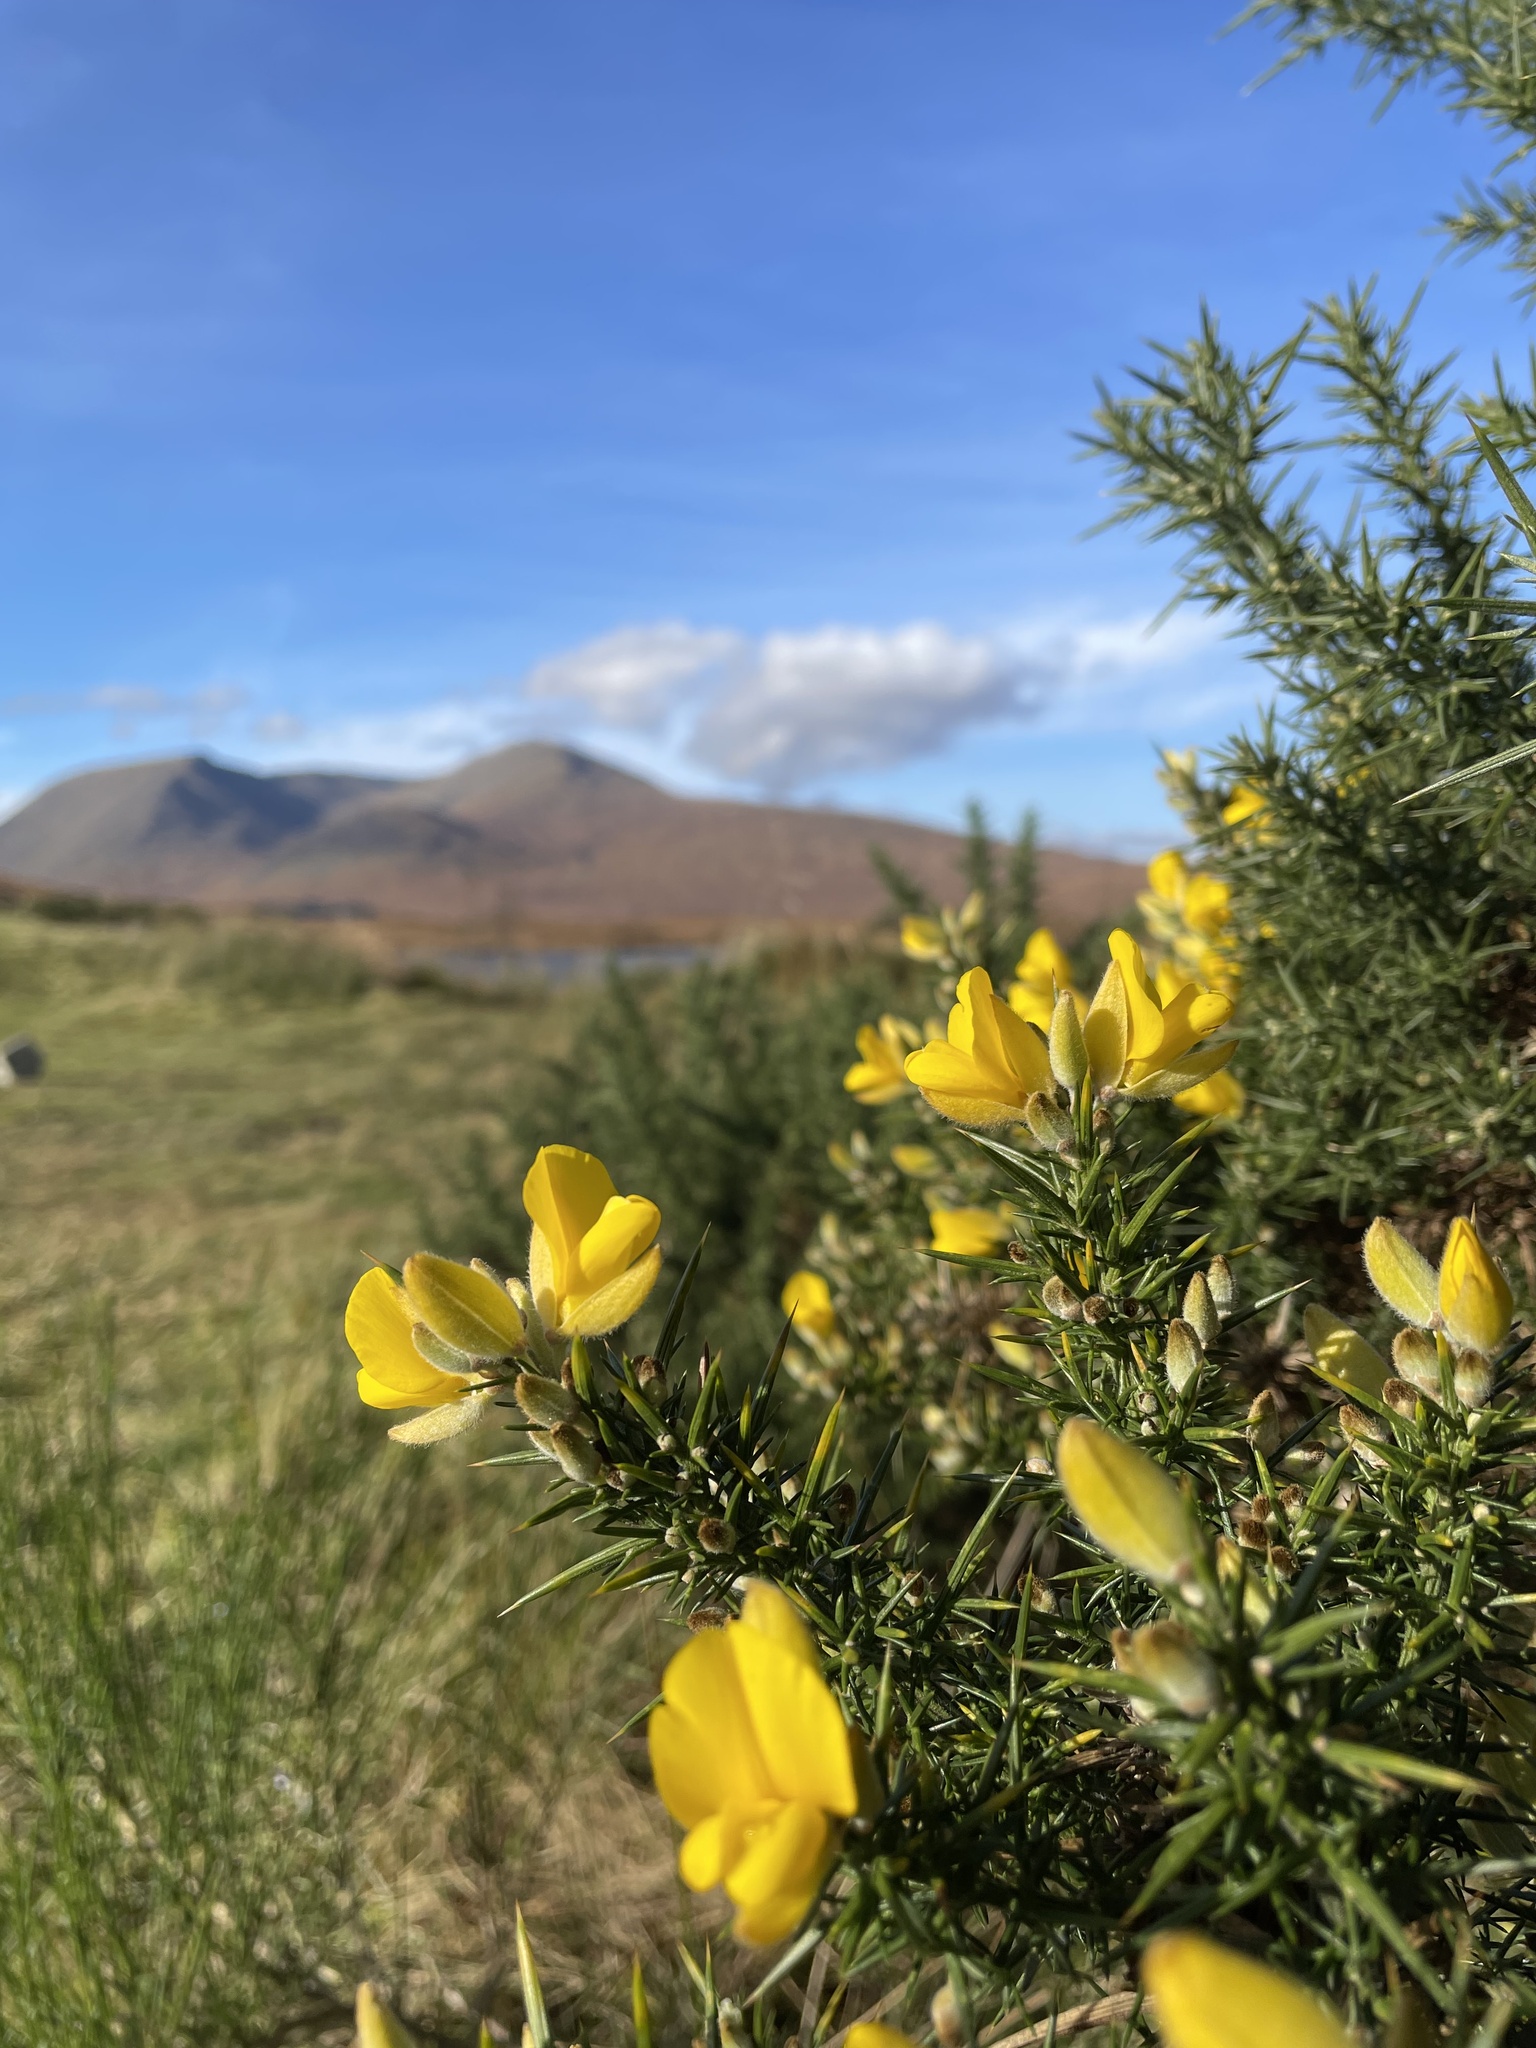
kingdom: Plantae
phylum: Tracheophyta
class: Magnoliopsida
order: Fabales
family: Fabaceae
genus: Ulex
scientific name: Ulex europaeus
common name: Common gorse
